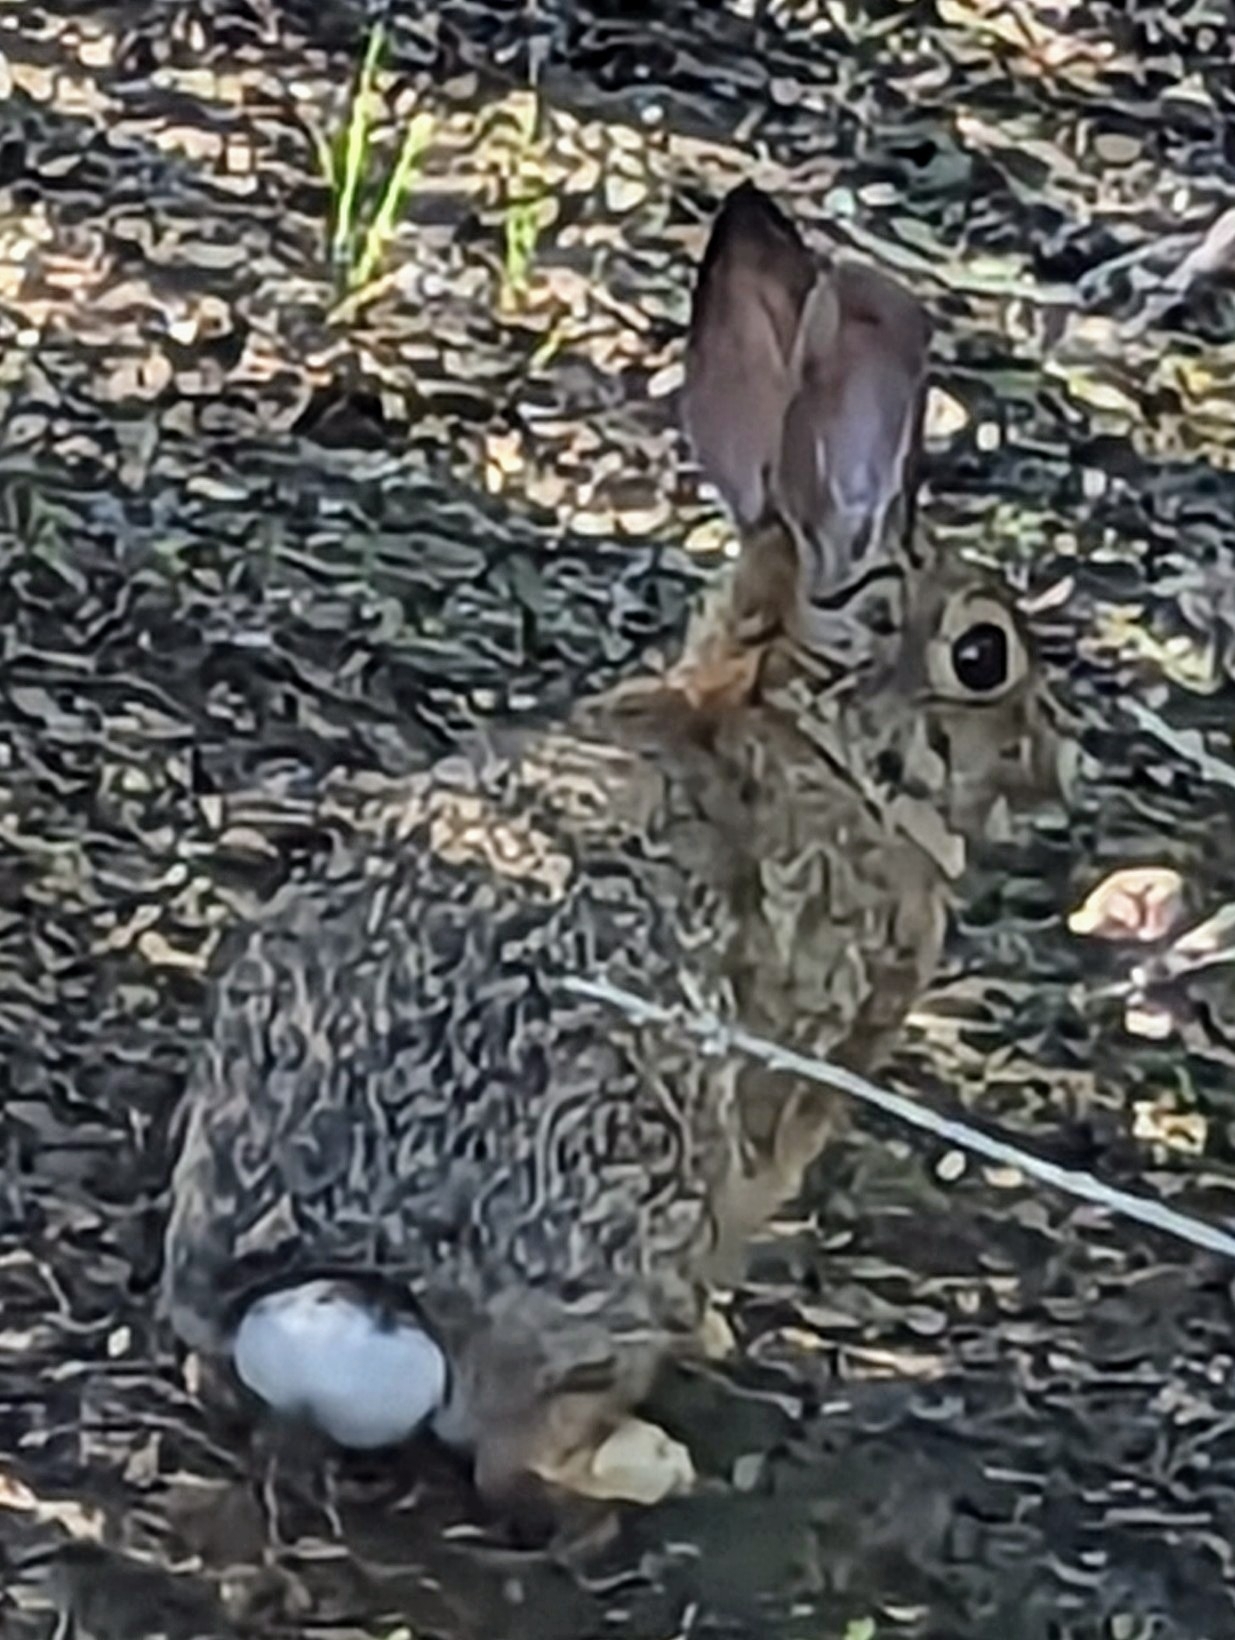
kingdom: Animalia
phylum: Chordata
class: Mammalia
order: Lagomorpha
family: Leporidae
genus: Sylvilagus
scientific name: Sylvilagus audubonii
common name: Desert cottontail
